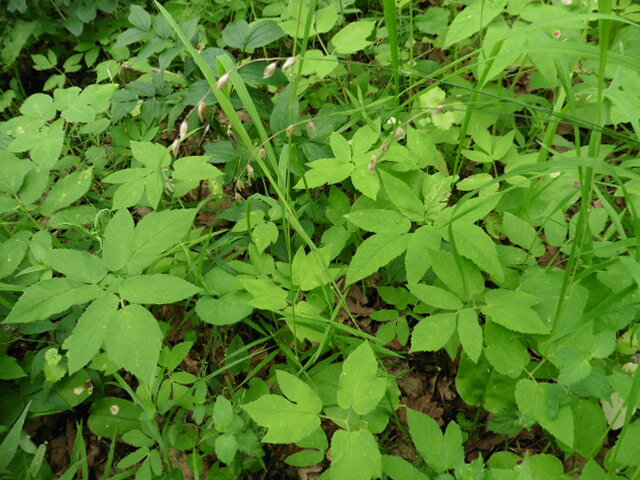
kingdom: Plantae
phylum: Tracheophyta
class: Liliopsida
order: Poales
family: Poaceae
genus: Melica
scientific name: Melica nutans
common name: Mountain melick
